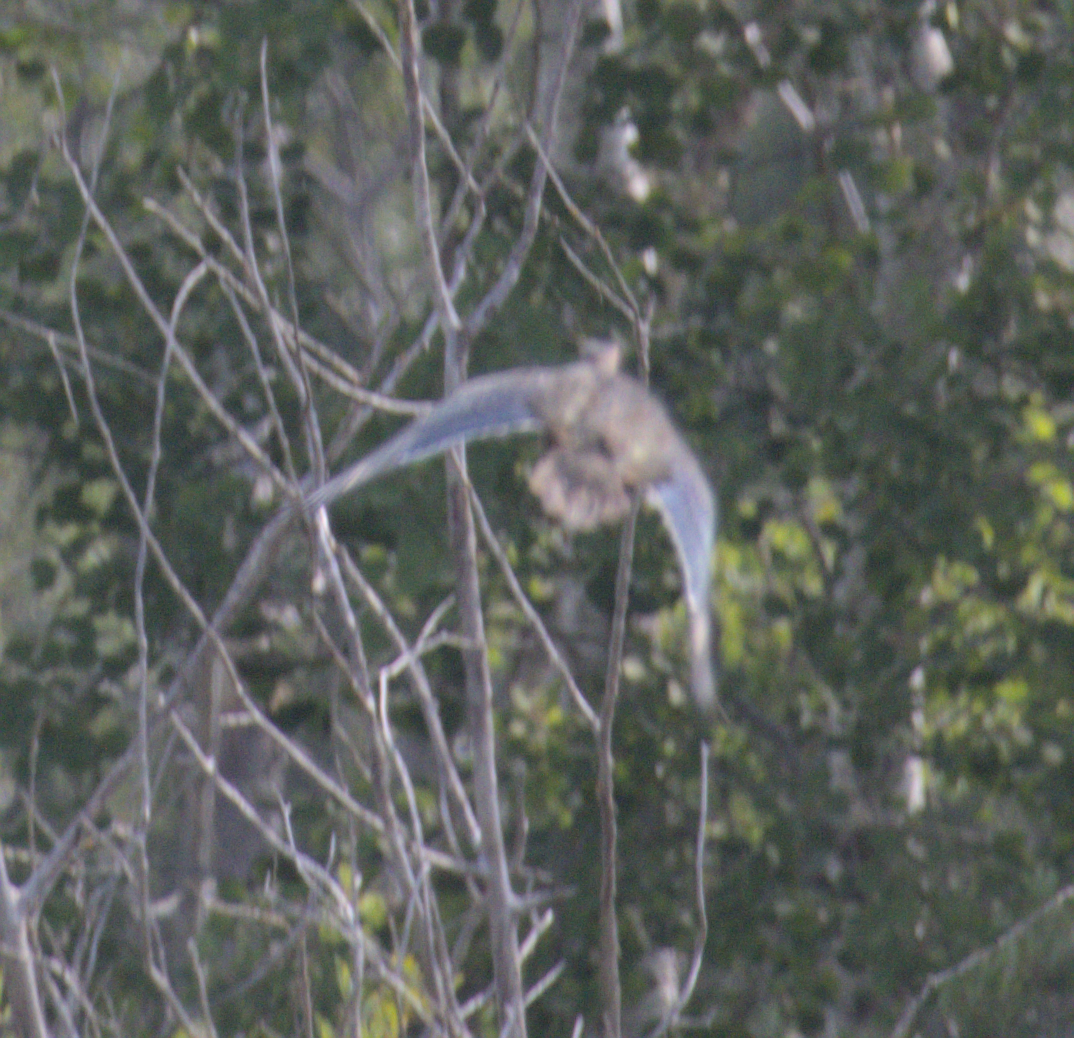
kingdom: Animalia
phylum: Chordata
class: Aves
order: Anseriformes
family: Anatidae
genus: Aix
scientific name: Aix sponsa
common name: Wood duck
